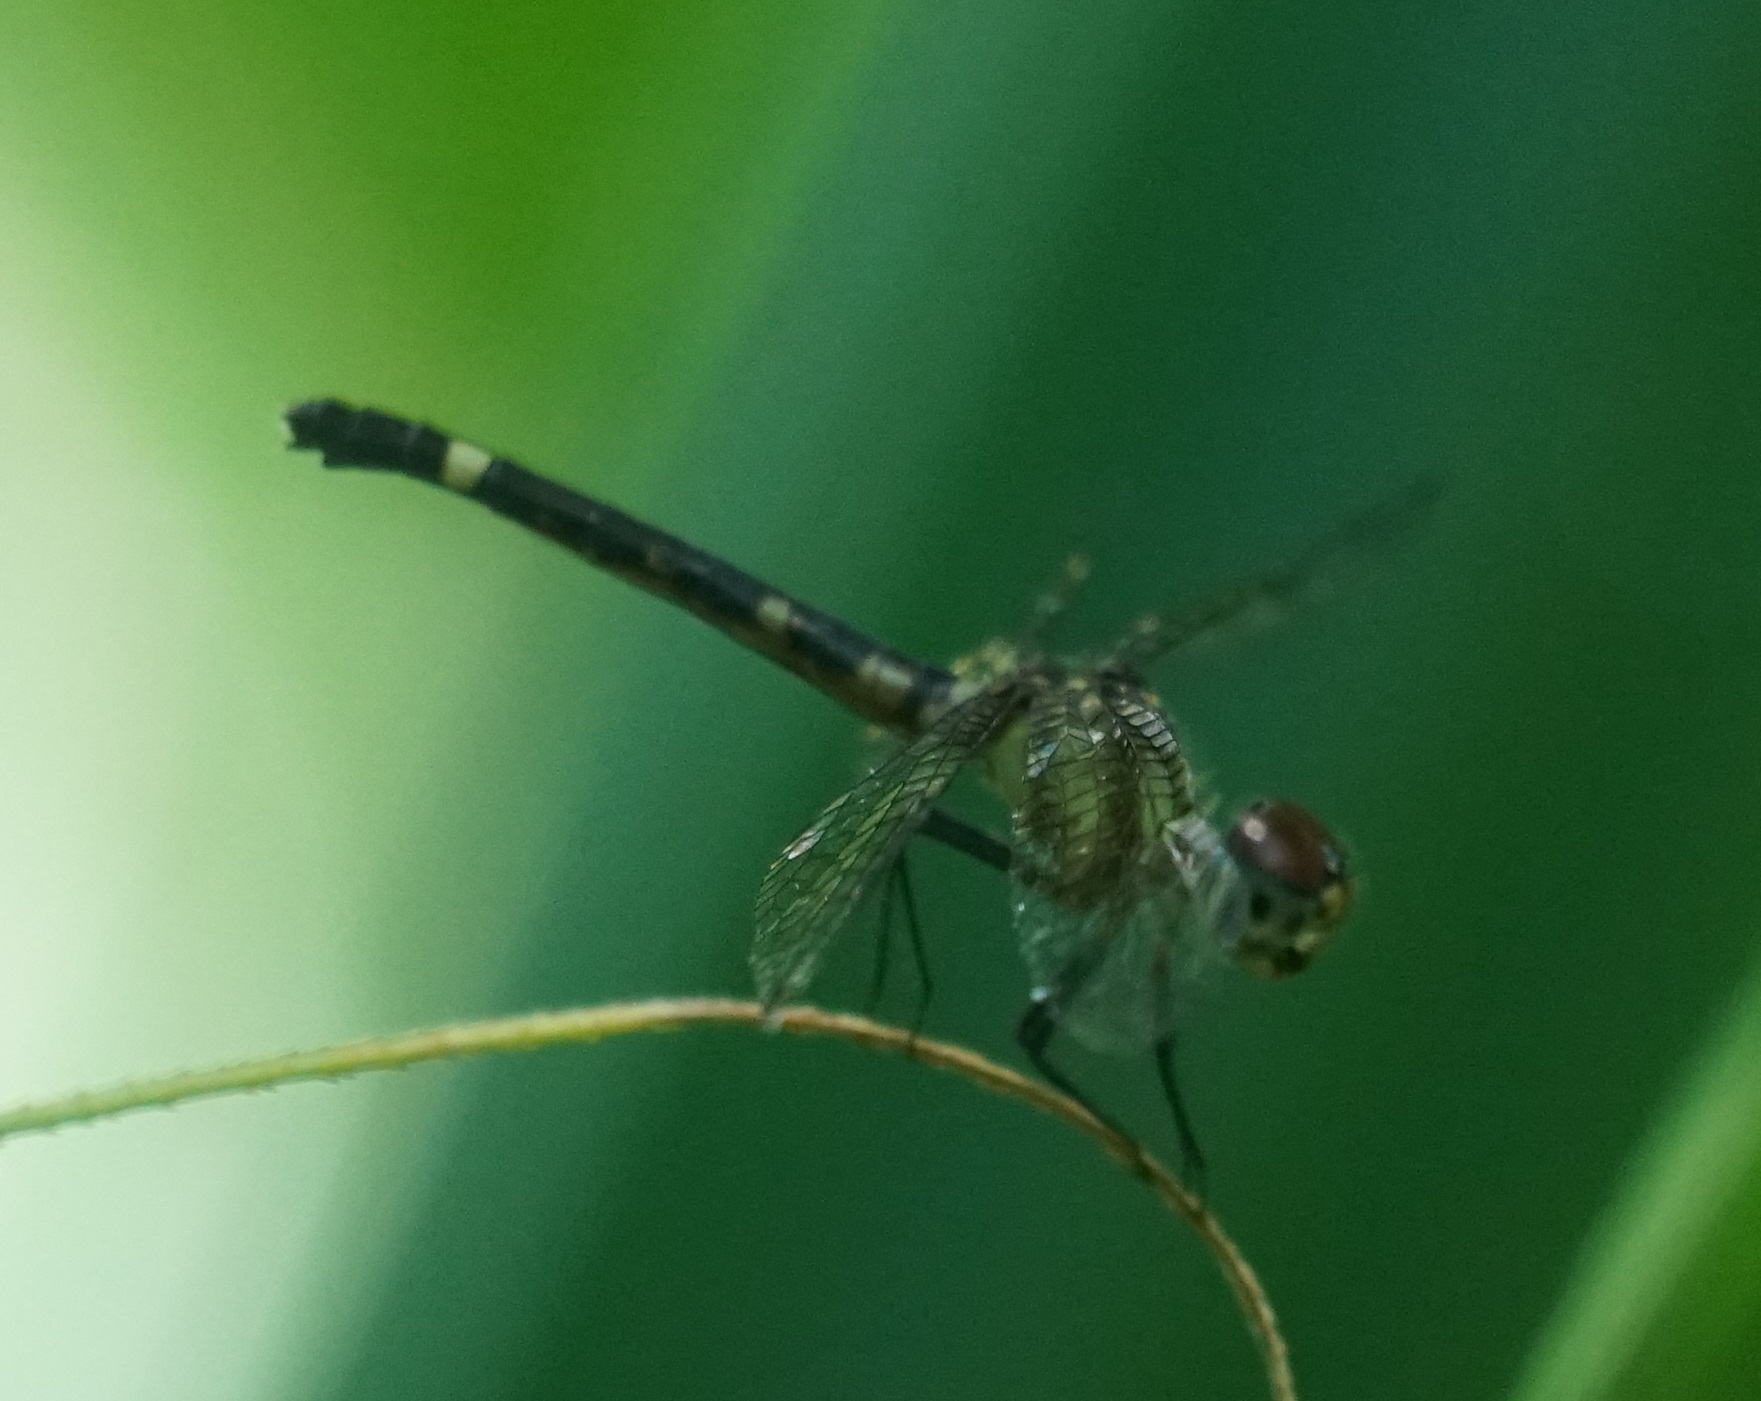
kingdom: Animalia
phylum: Arthropoda
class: Insecta
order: Odonata
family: Libellulidae
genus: Tetrathemis
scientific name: Tetrathemis irregularis
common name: Elf
